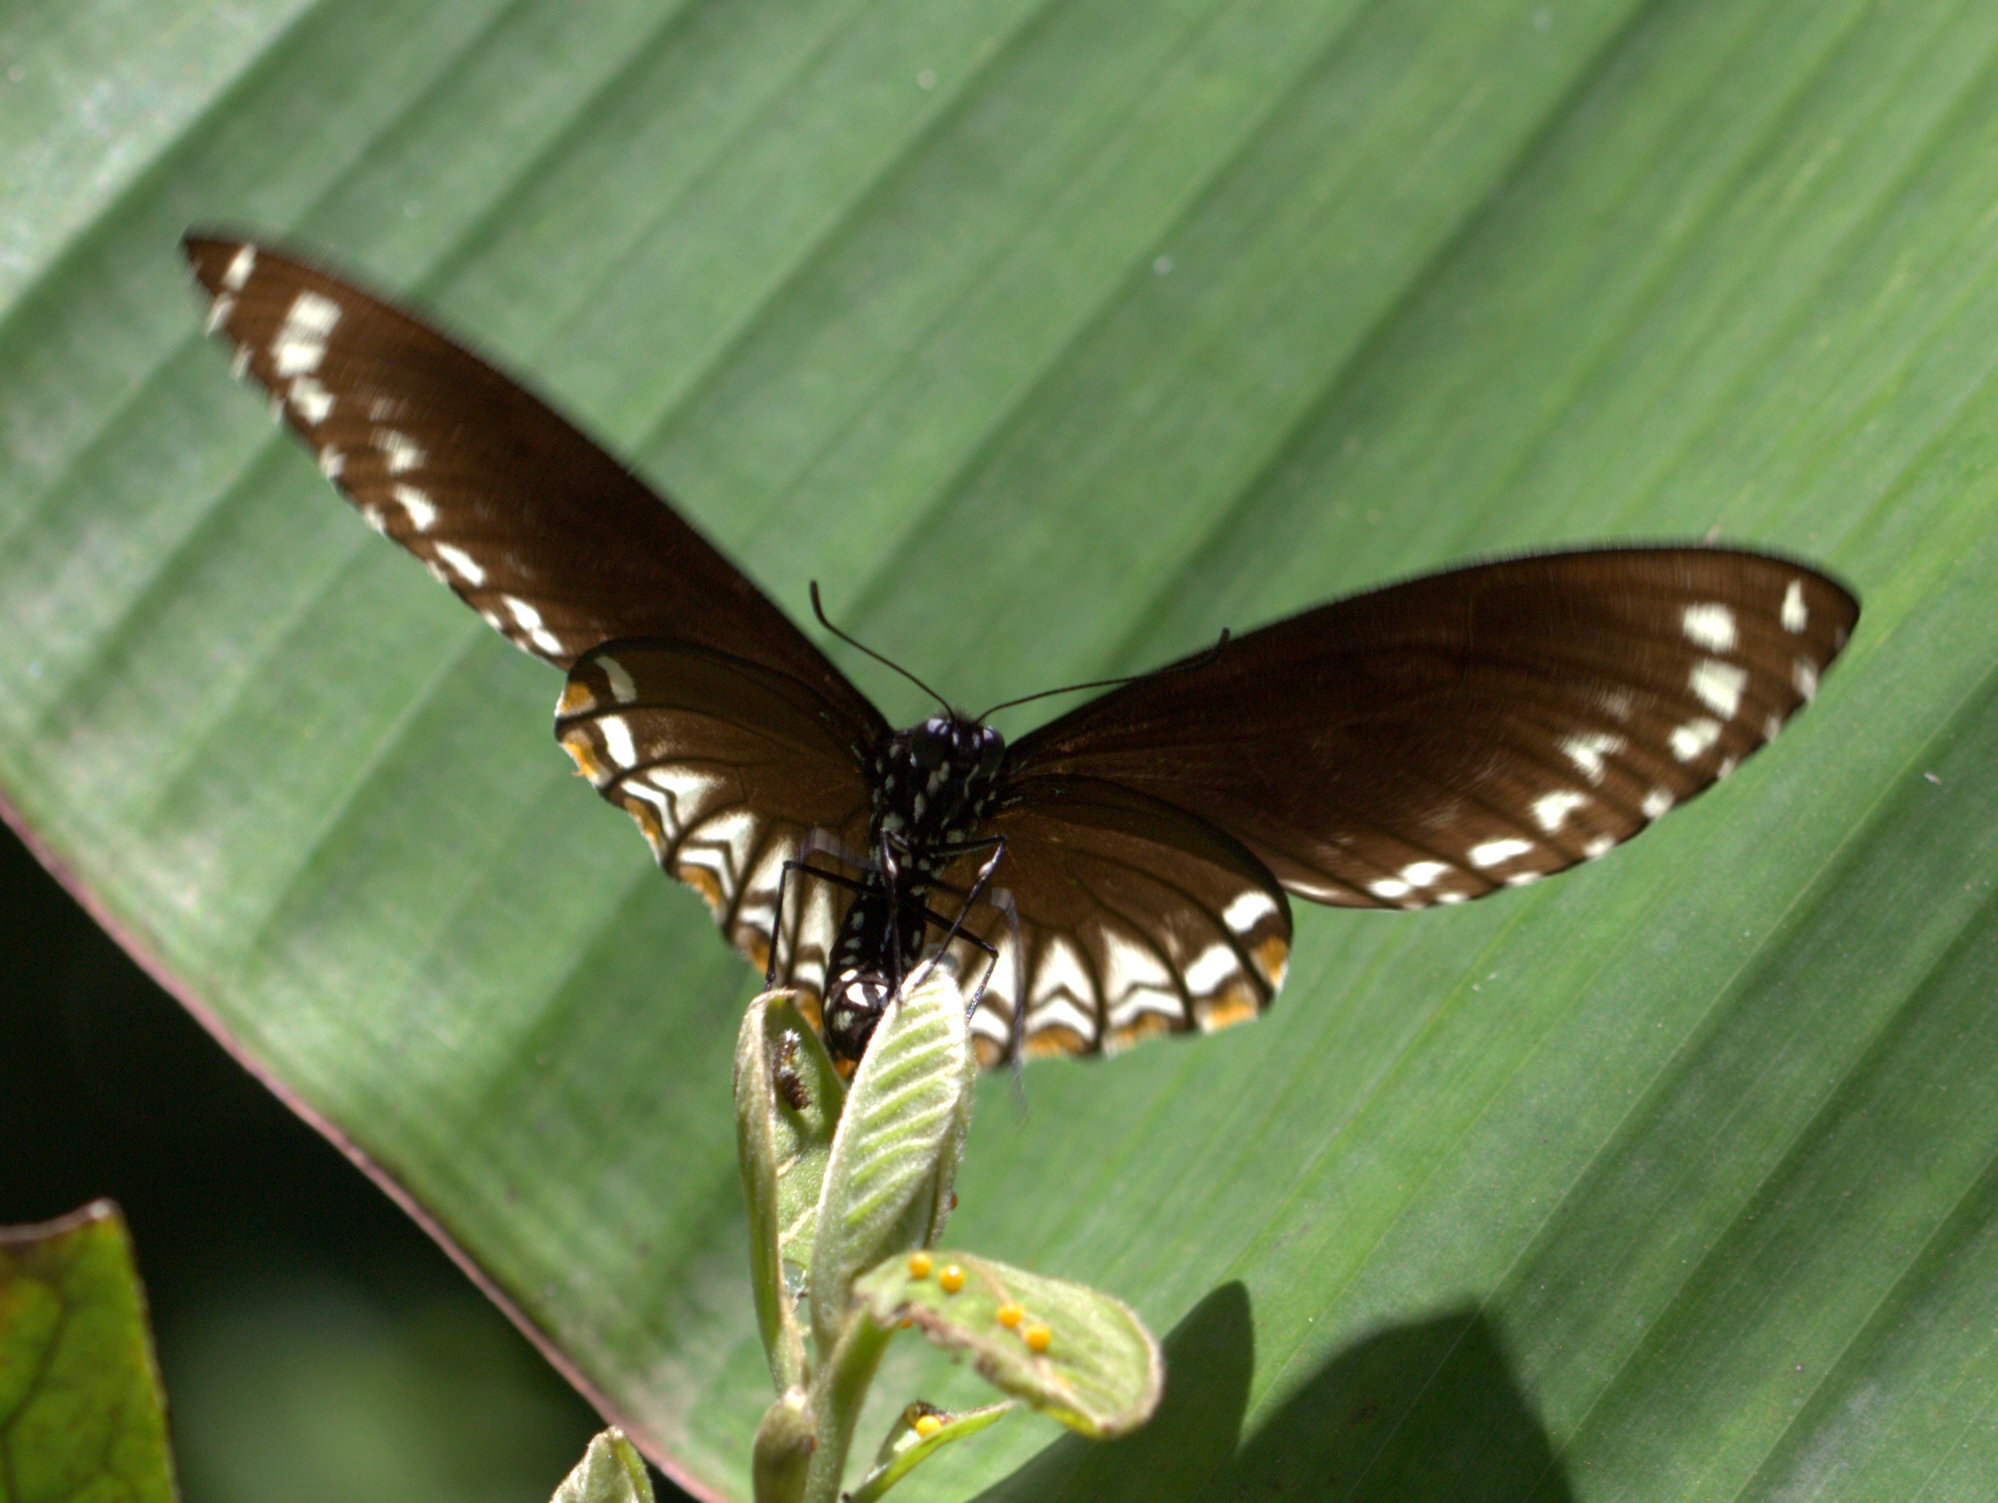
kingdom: Animalia
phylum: Arthropoda
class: Insecta
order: Lepidoptera
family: Papilionidae
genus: Chilasa
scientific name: Chilasa clytia
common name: Common mime
